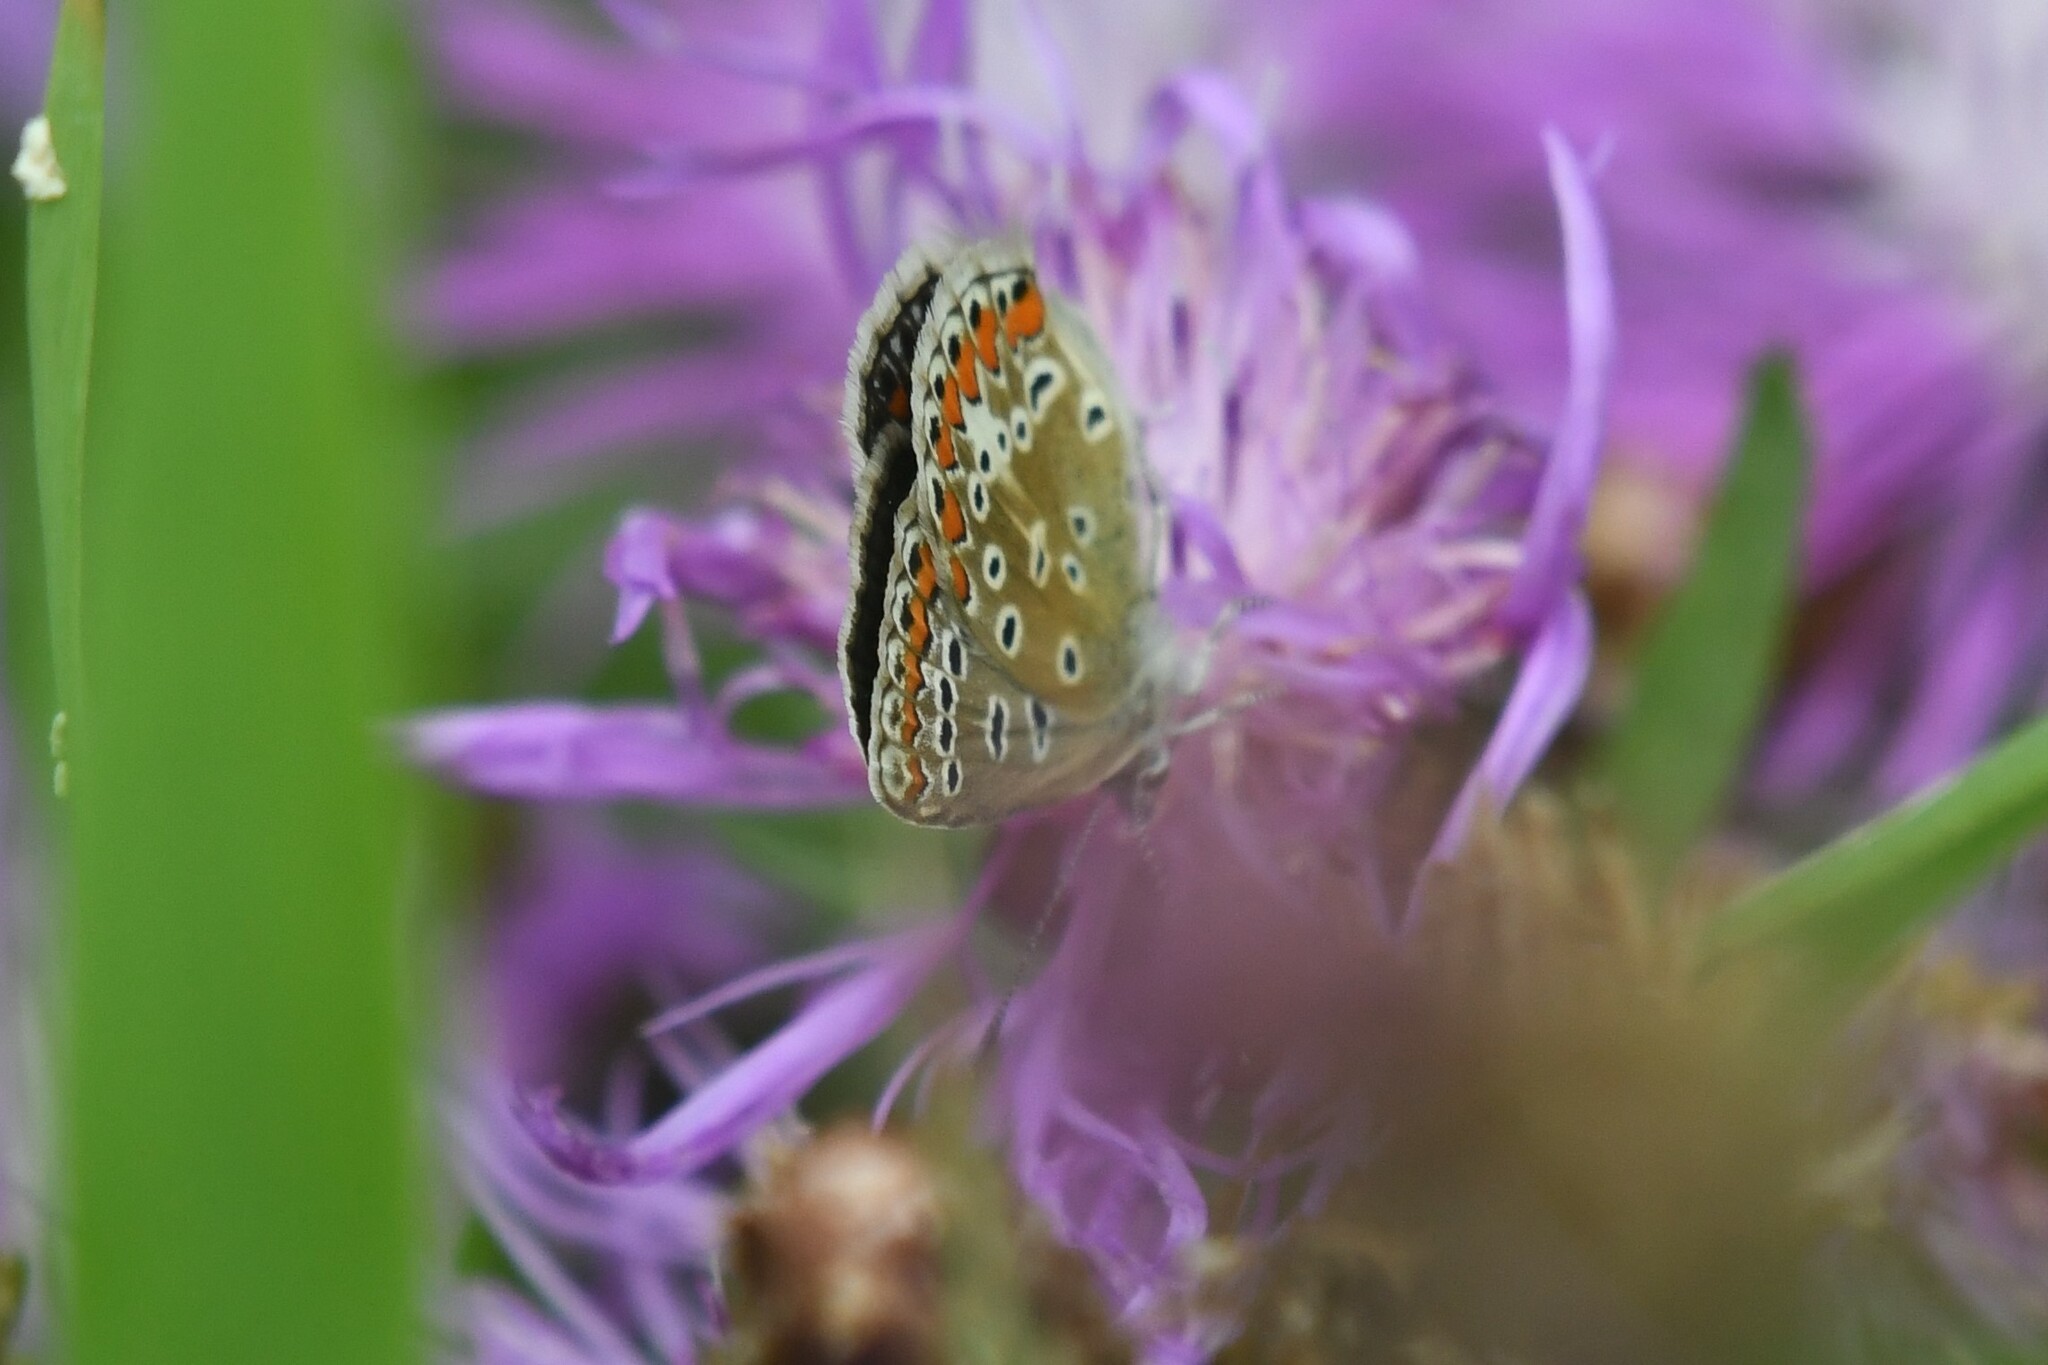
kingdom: Animalia
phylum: Arthropoda
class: Insecta
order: Lepidoptera
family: Lycaenidae
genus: Polyommatus
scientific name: Polyommatus icarus
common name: Common blue
